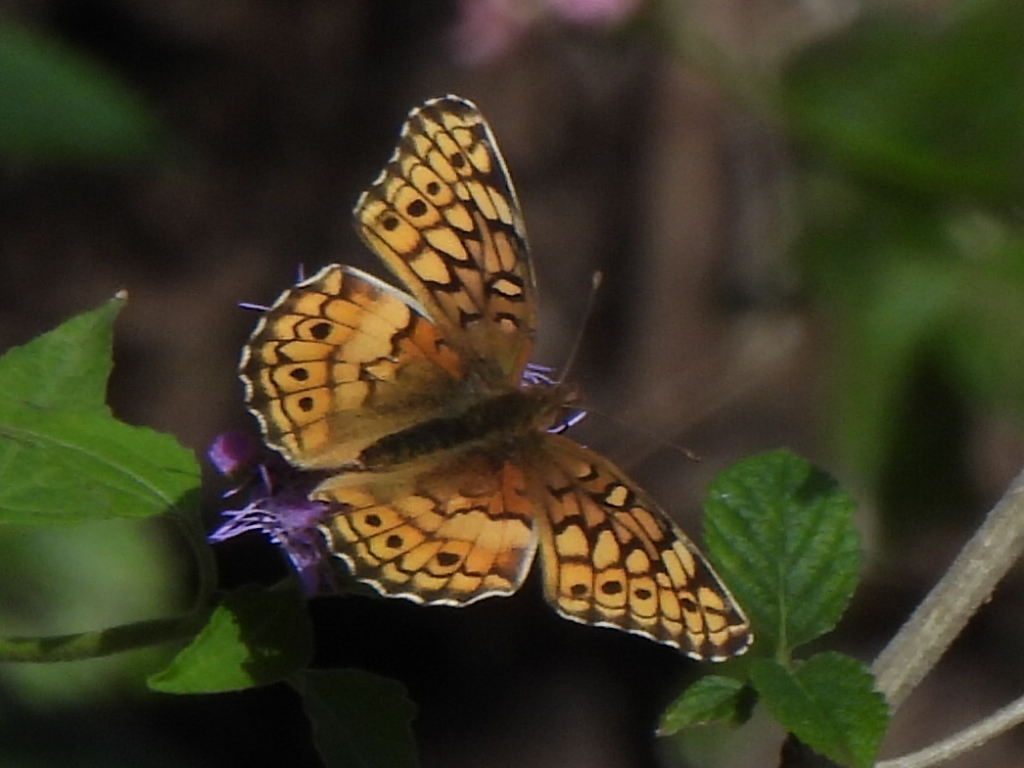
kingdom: Animalia
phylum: Arthropoda
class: Insecta
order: Lepidoptera
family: Nymphalidae
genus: Euptoieta
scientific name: Euptoieta claudia
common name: Variegated fritillary
